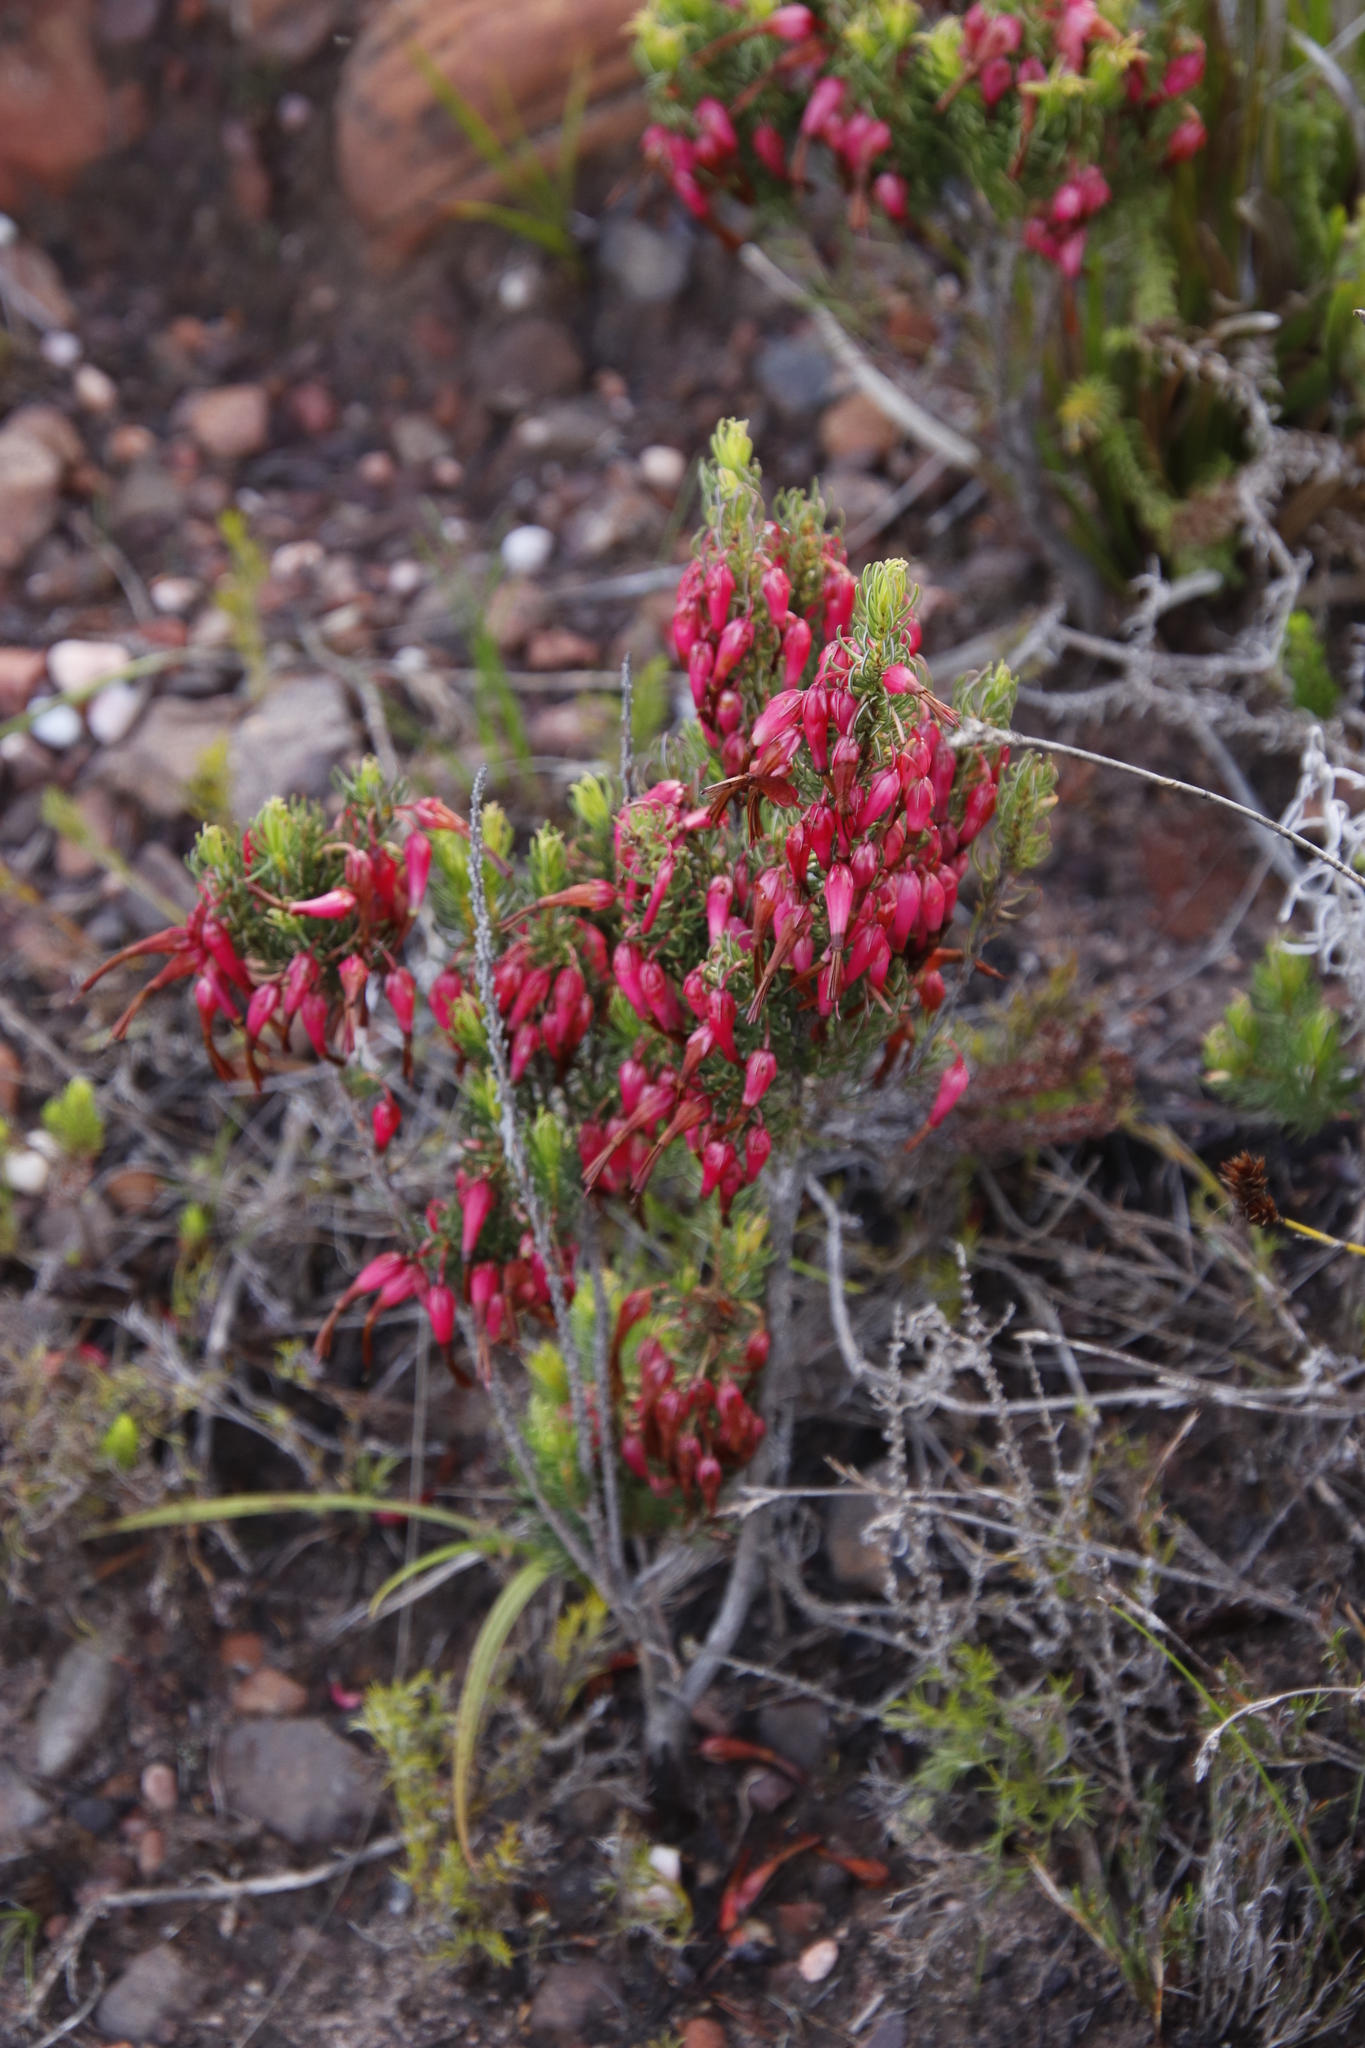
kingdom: Plantae
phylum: Tracheophyta
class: Magnoliopsida
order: Ericales
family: Ericaceae
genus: Erica
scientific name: Erica plukenetii
